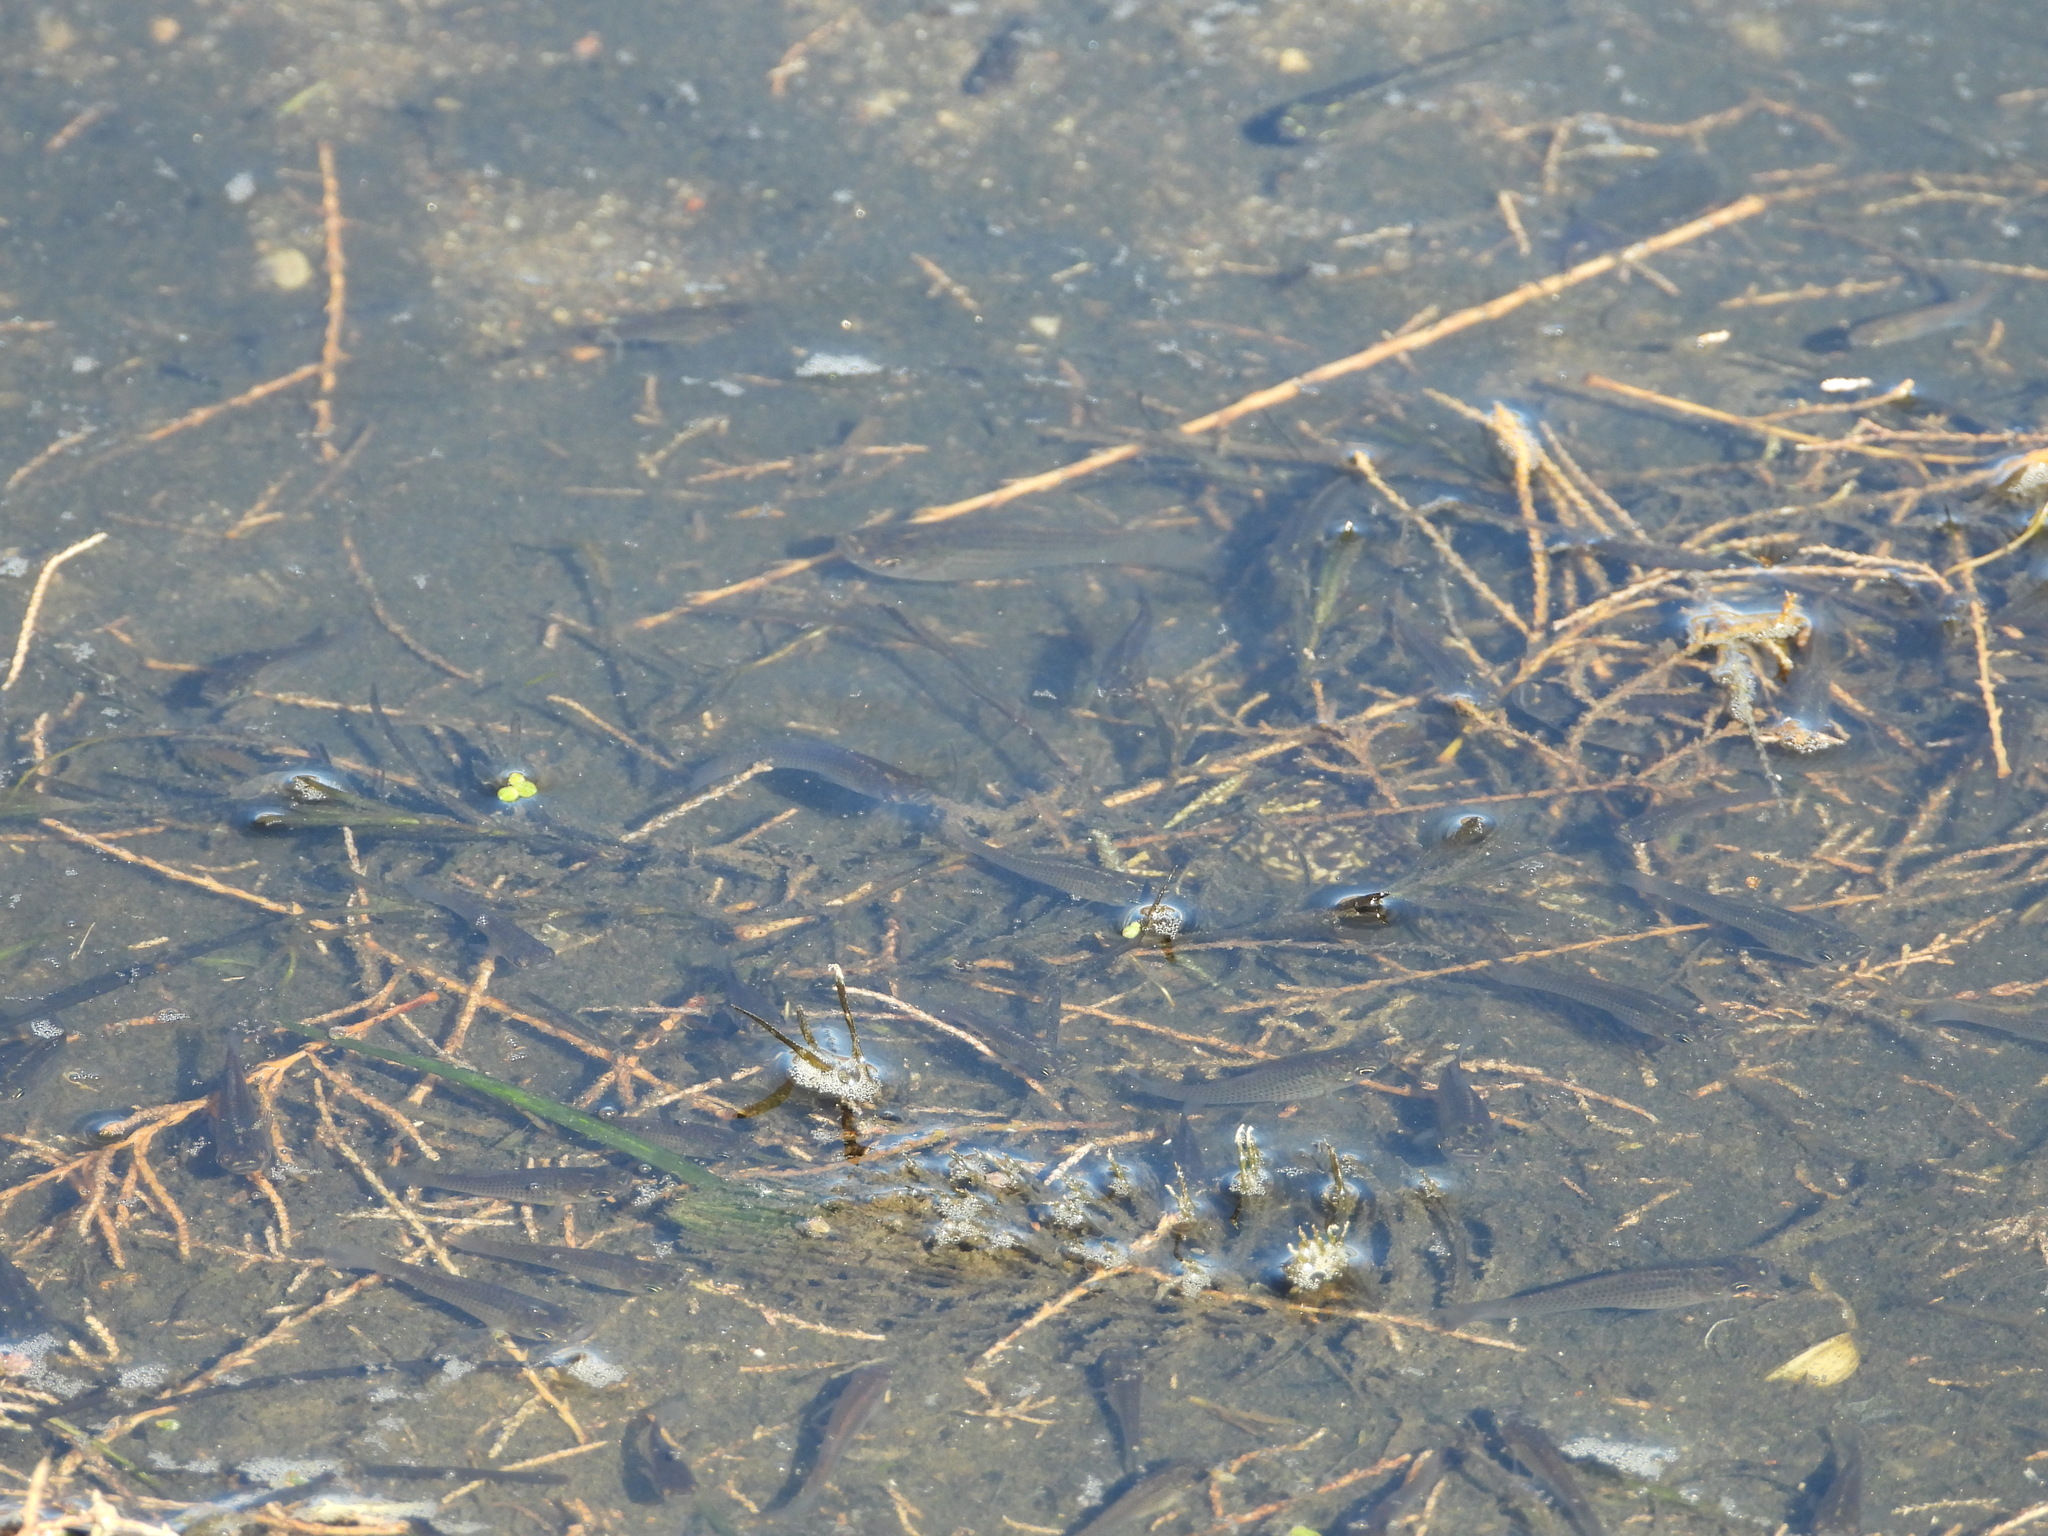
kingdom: Animalia
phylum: Chordata
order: Cyprinodontiformes
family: Poeciliidae
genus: Poecilia
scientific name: Poecilia latipinna
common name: Sailfin molly
